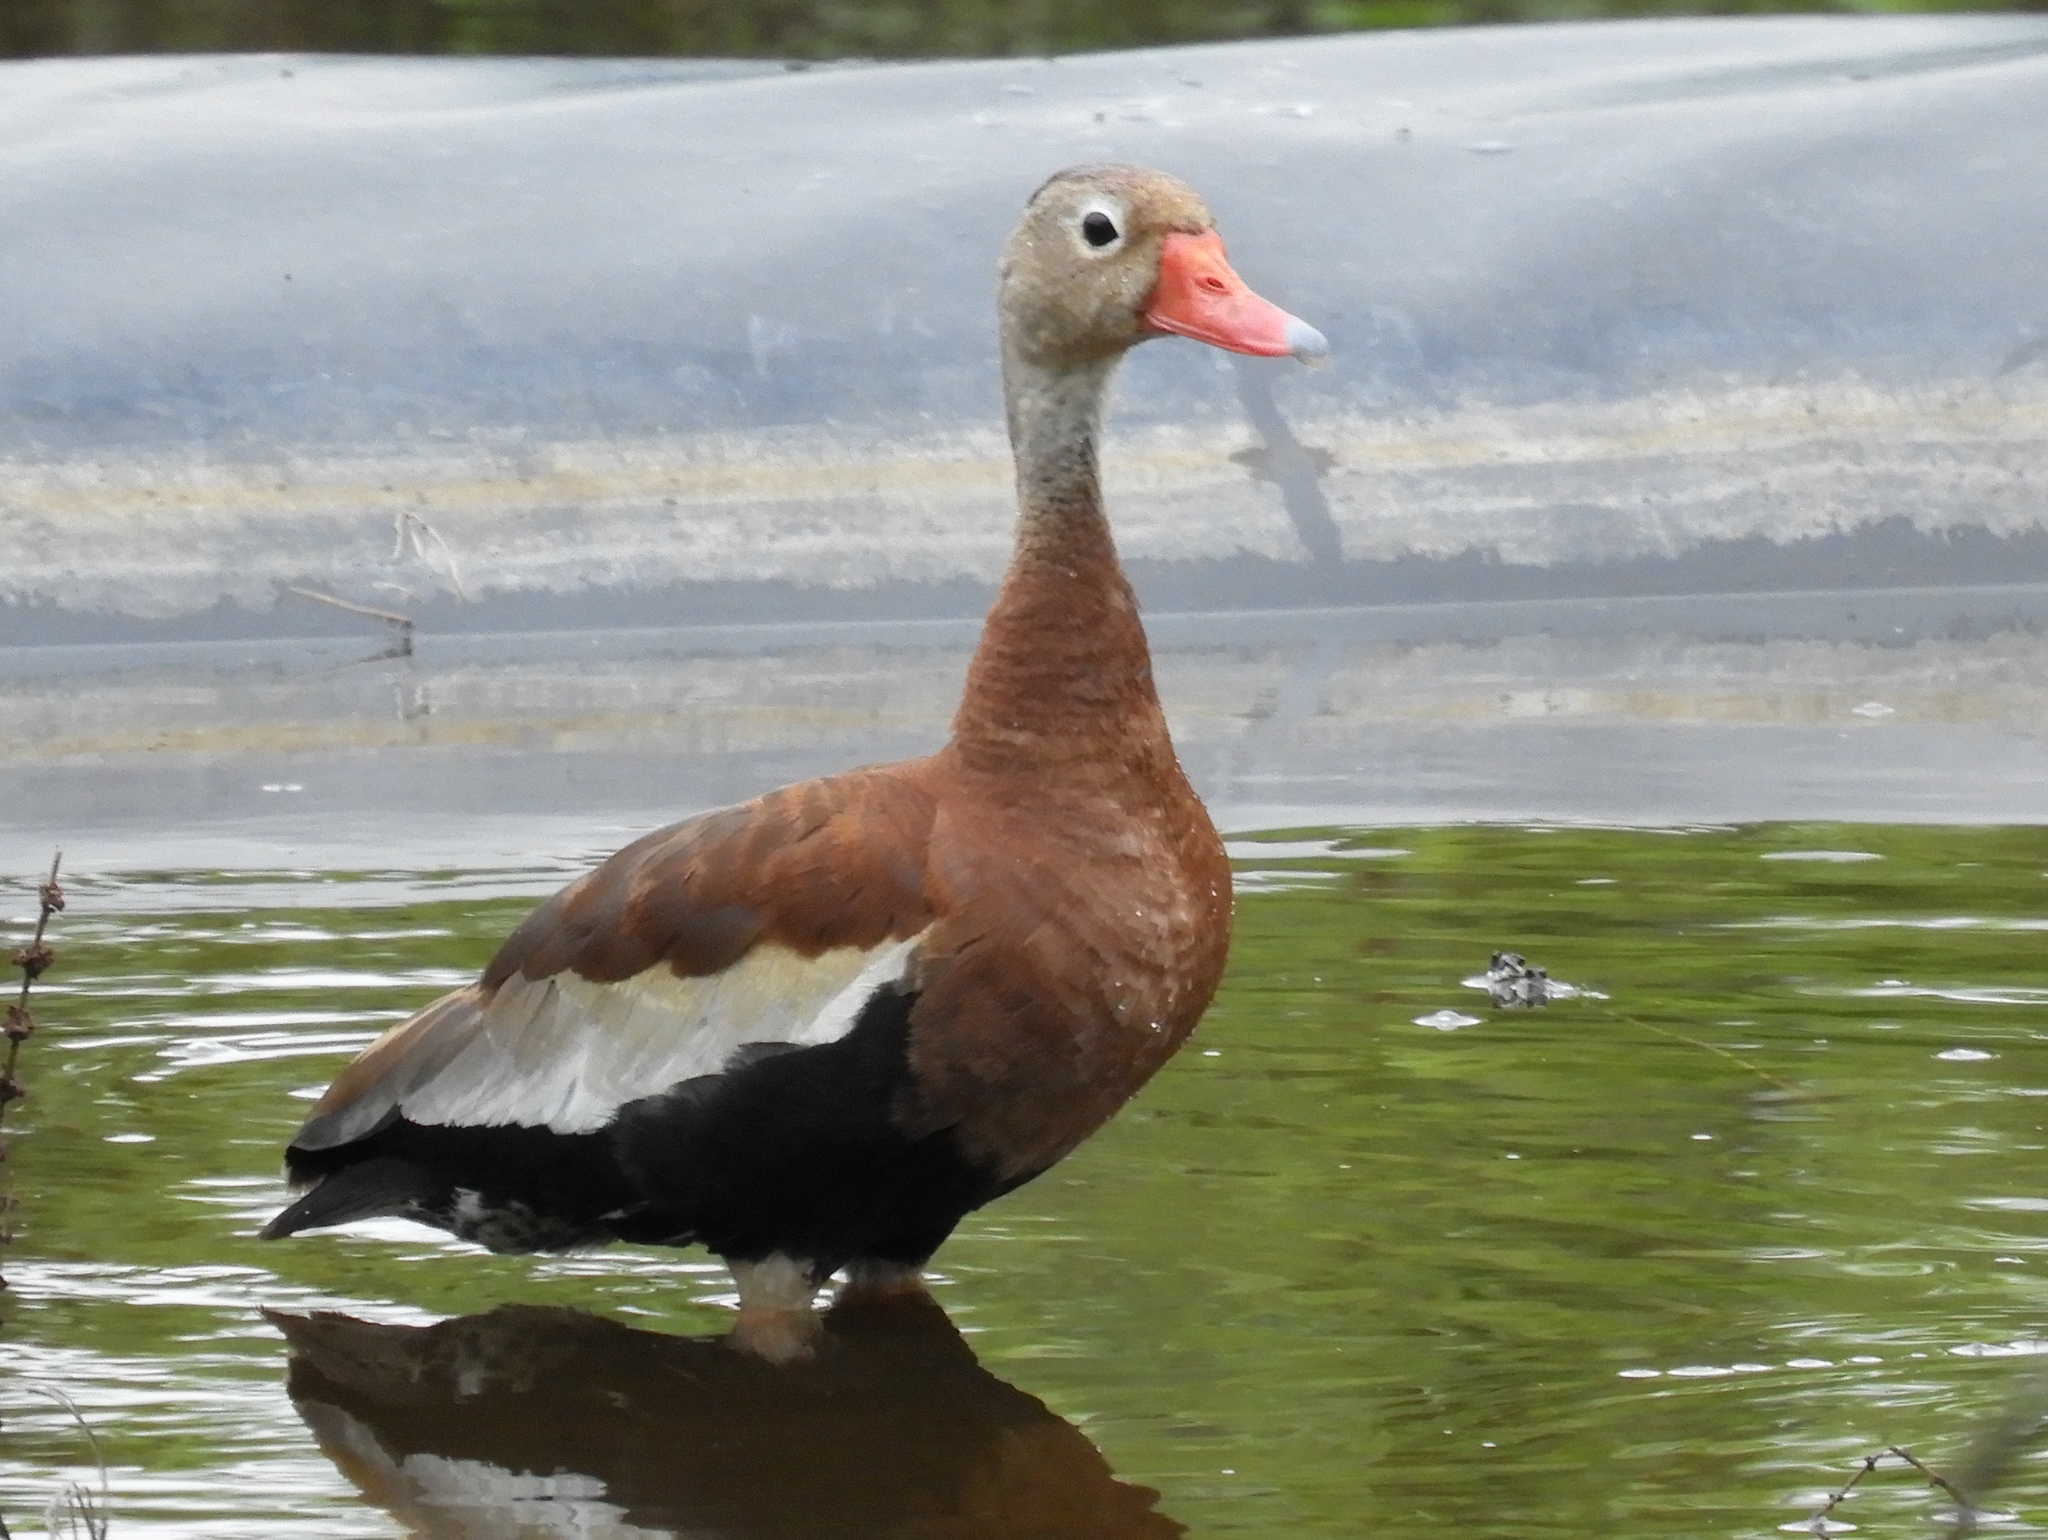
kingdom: Animalia
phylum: Chordata
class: Aves
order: Anseriformes
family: Anatidae
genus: Dendrocygna
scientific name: Dendrocygna autumnalis
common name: Black-bellied whistling duck
